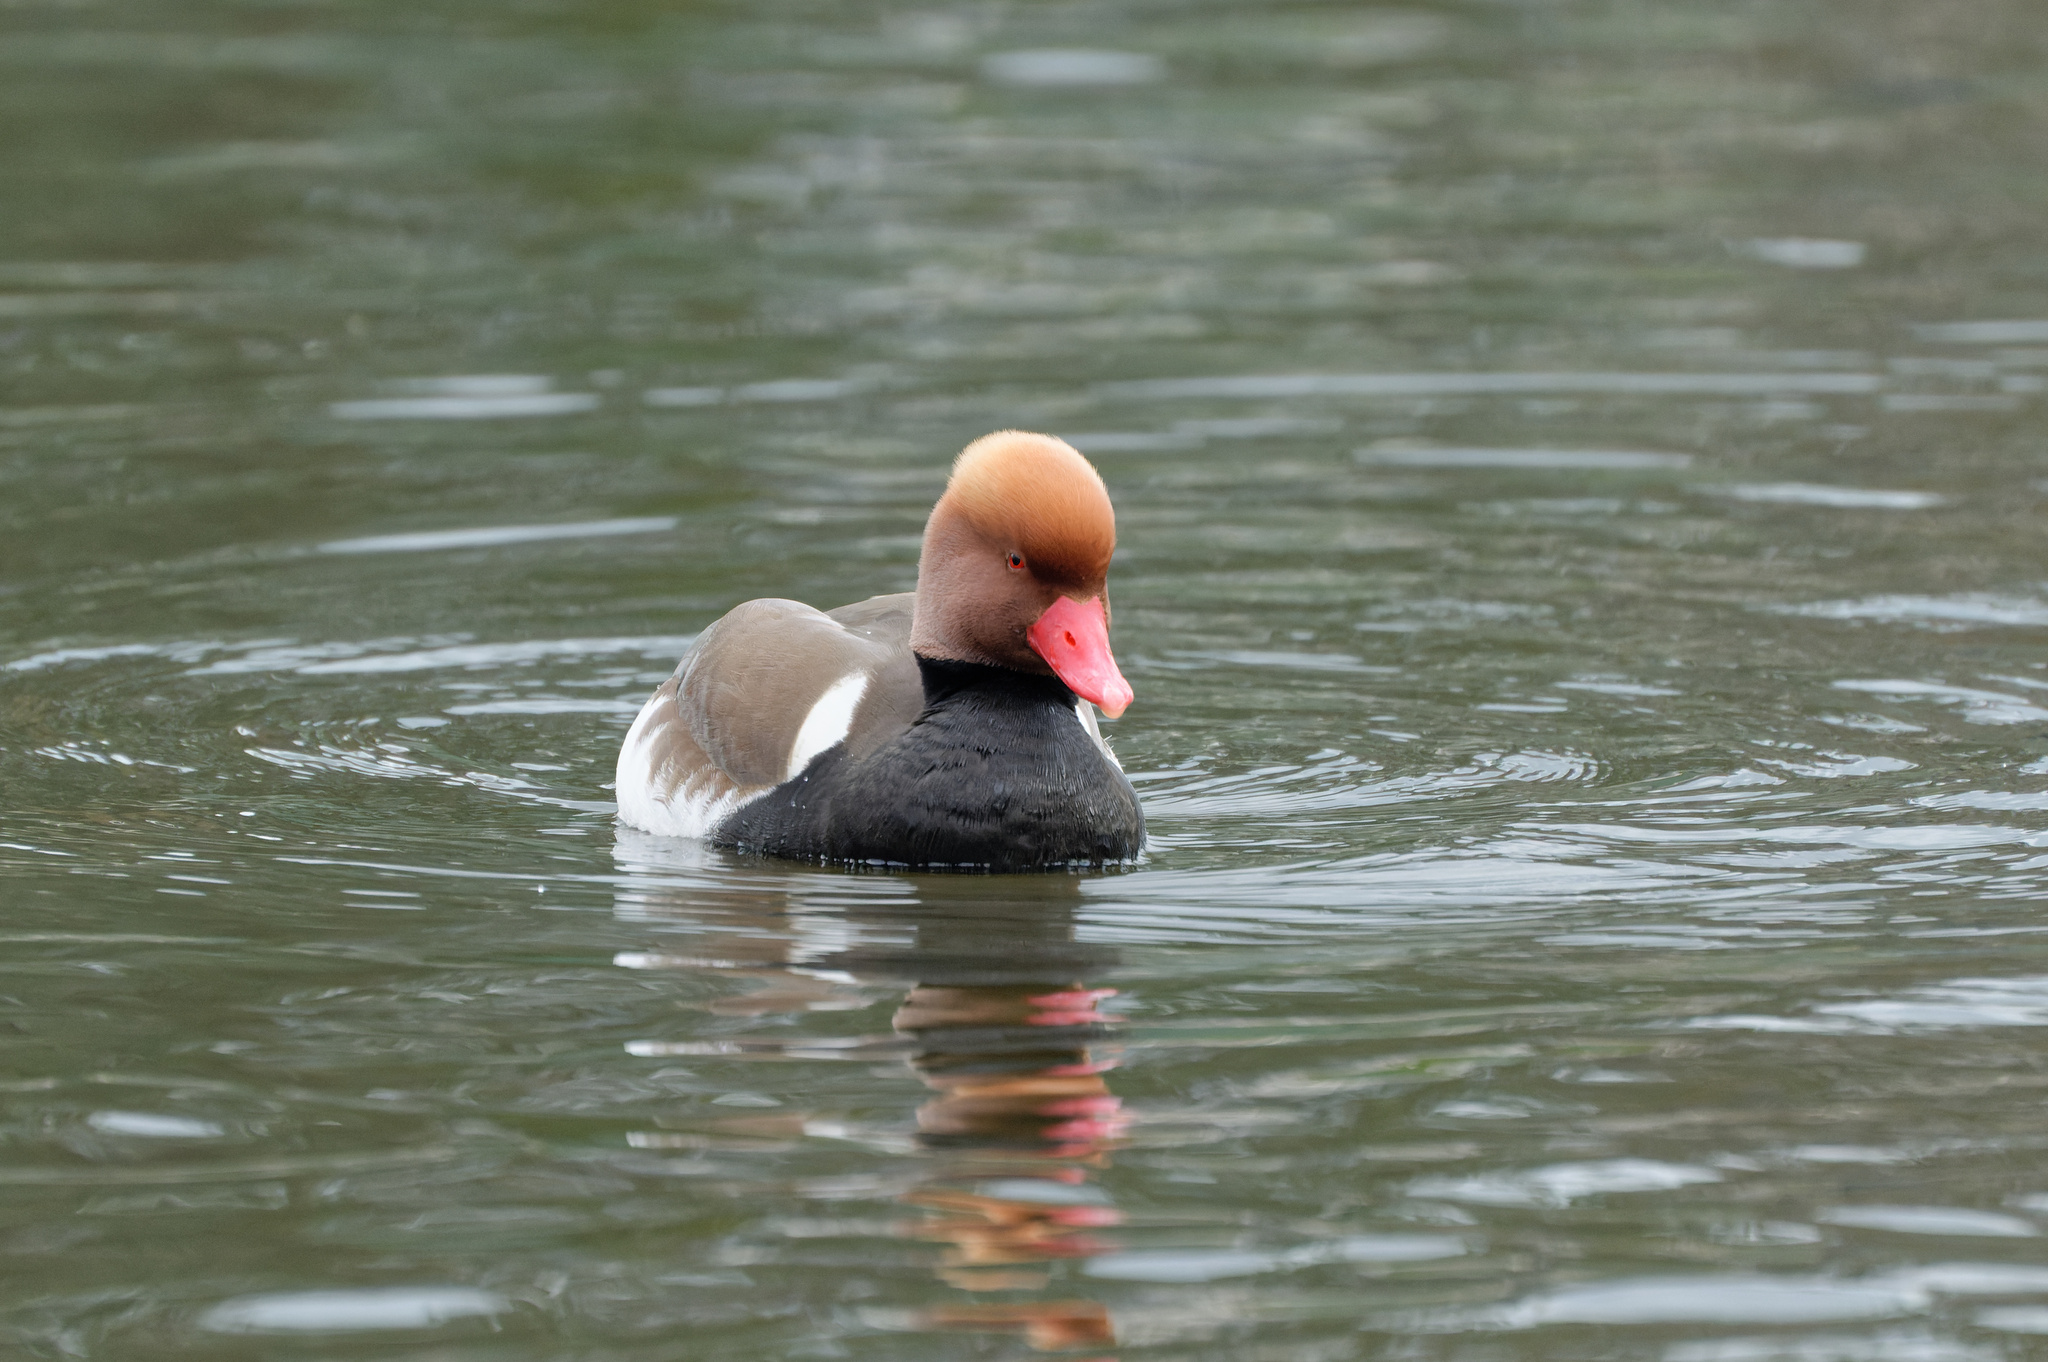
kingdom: Animalia
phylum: Chordata
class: Aves
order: Anseriformes
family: Anatidae
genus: Netta
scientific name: Netta rufina
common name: Red-crested pochard
